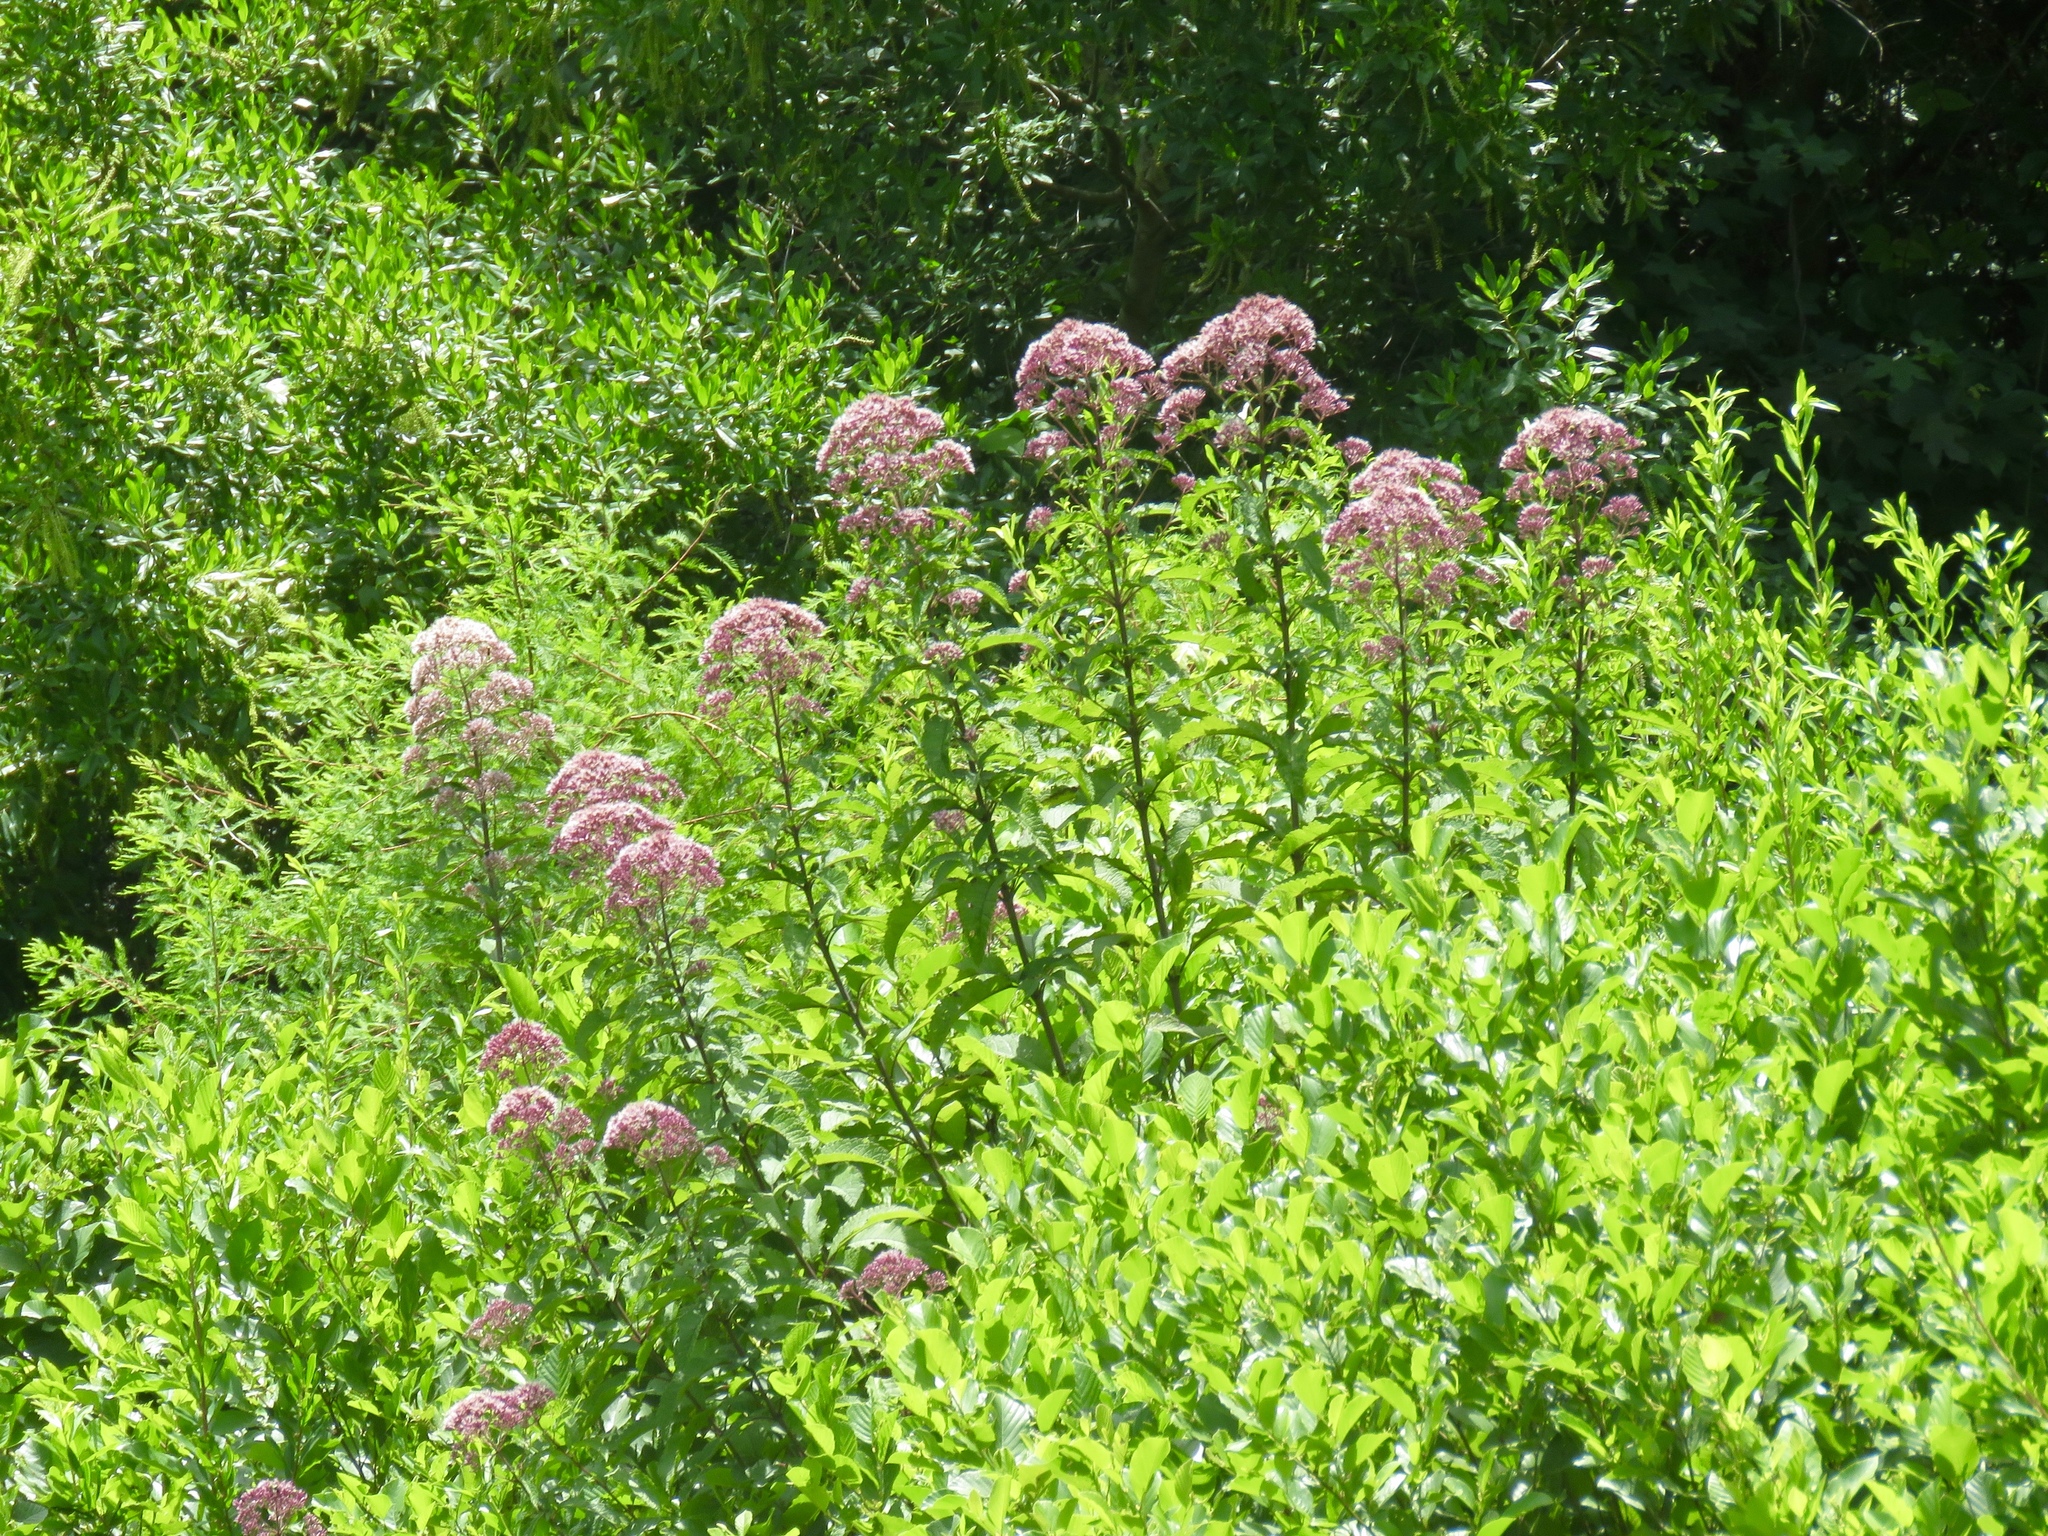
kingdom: Plantae
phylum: Tracheophyta
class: Magnoliopsida
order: Asterales
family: Asteraceae
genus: Eutrochium
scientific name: Eutrochium fistulosum
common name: Trumpetweed
